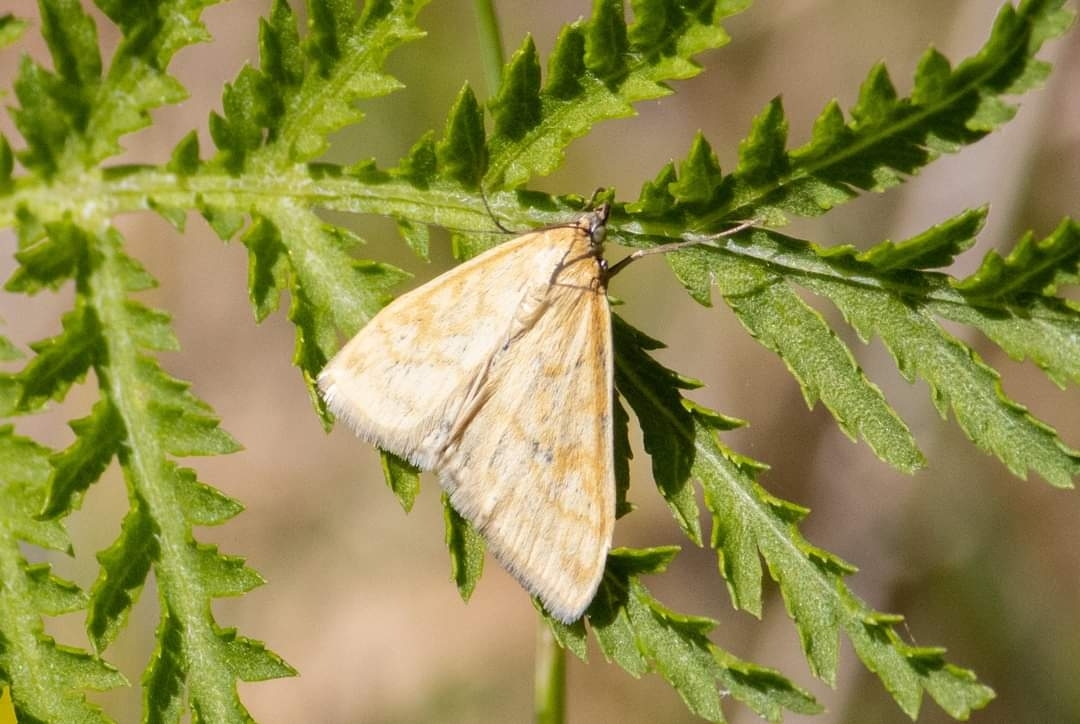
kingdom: Animalia
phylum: Arthropoda
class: Insecta
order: Lepidoptera
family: Crambidae
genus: Sitochroa
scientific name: Sitochroa verticalis
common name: Lesser pearl
